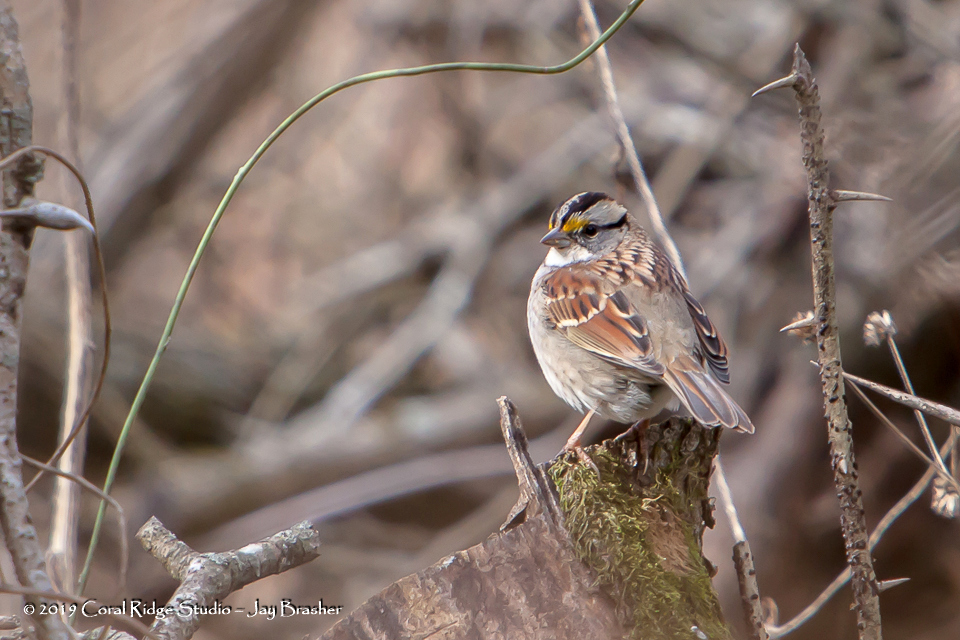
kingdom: Animalia
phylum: Chordata
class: Aves
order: Passeriformes
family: Passerellidae
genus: Zonotrichia
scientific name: Zonotrichia albicollis
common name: White-throated sparrow
